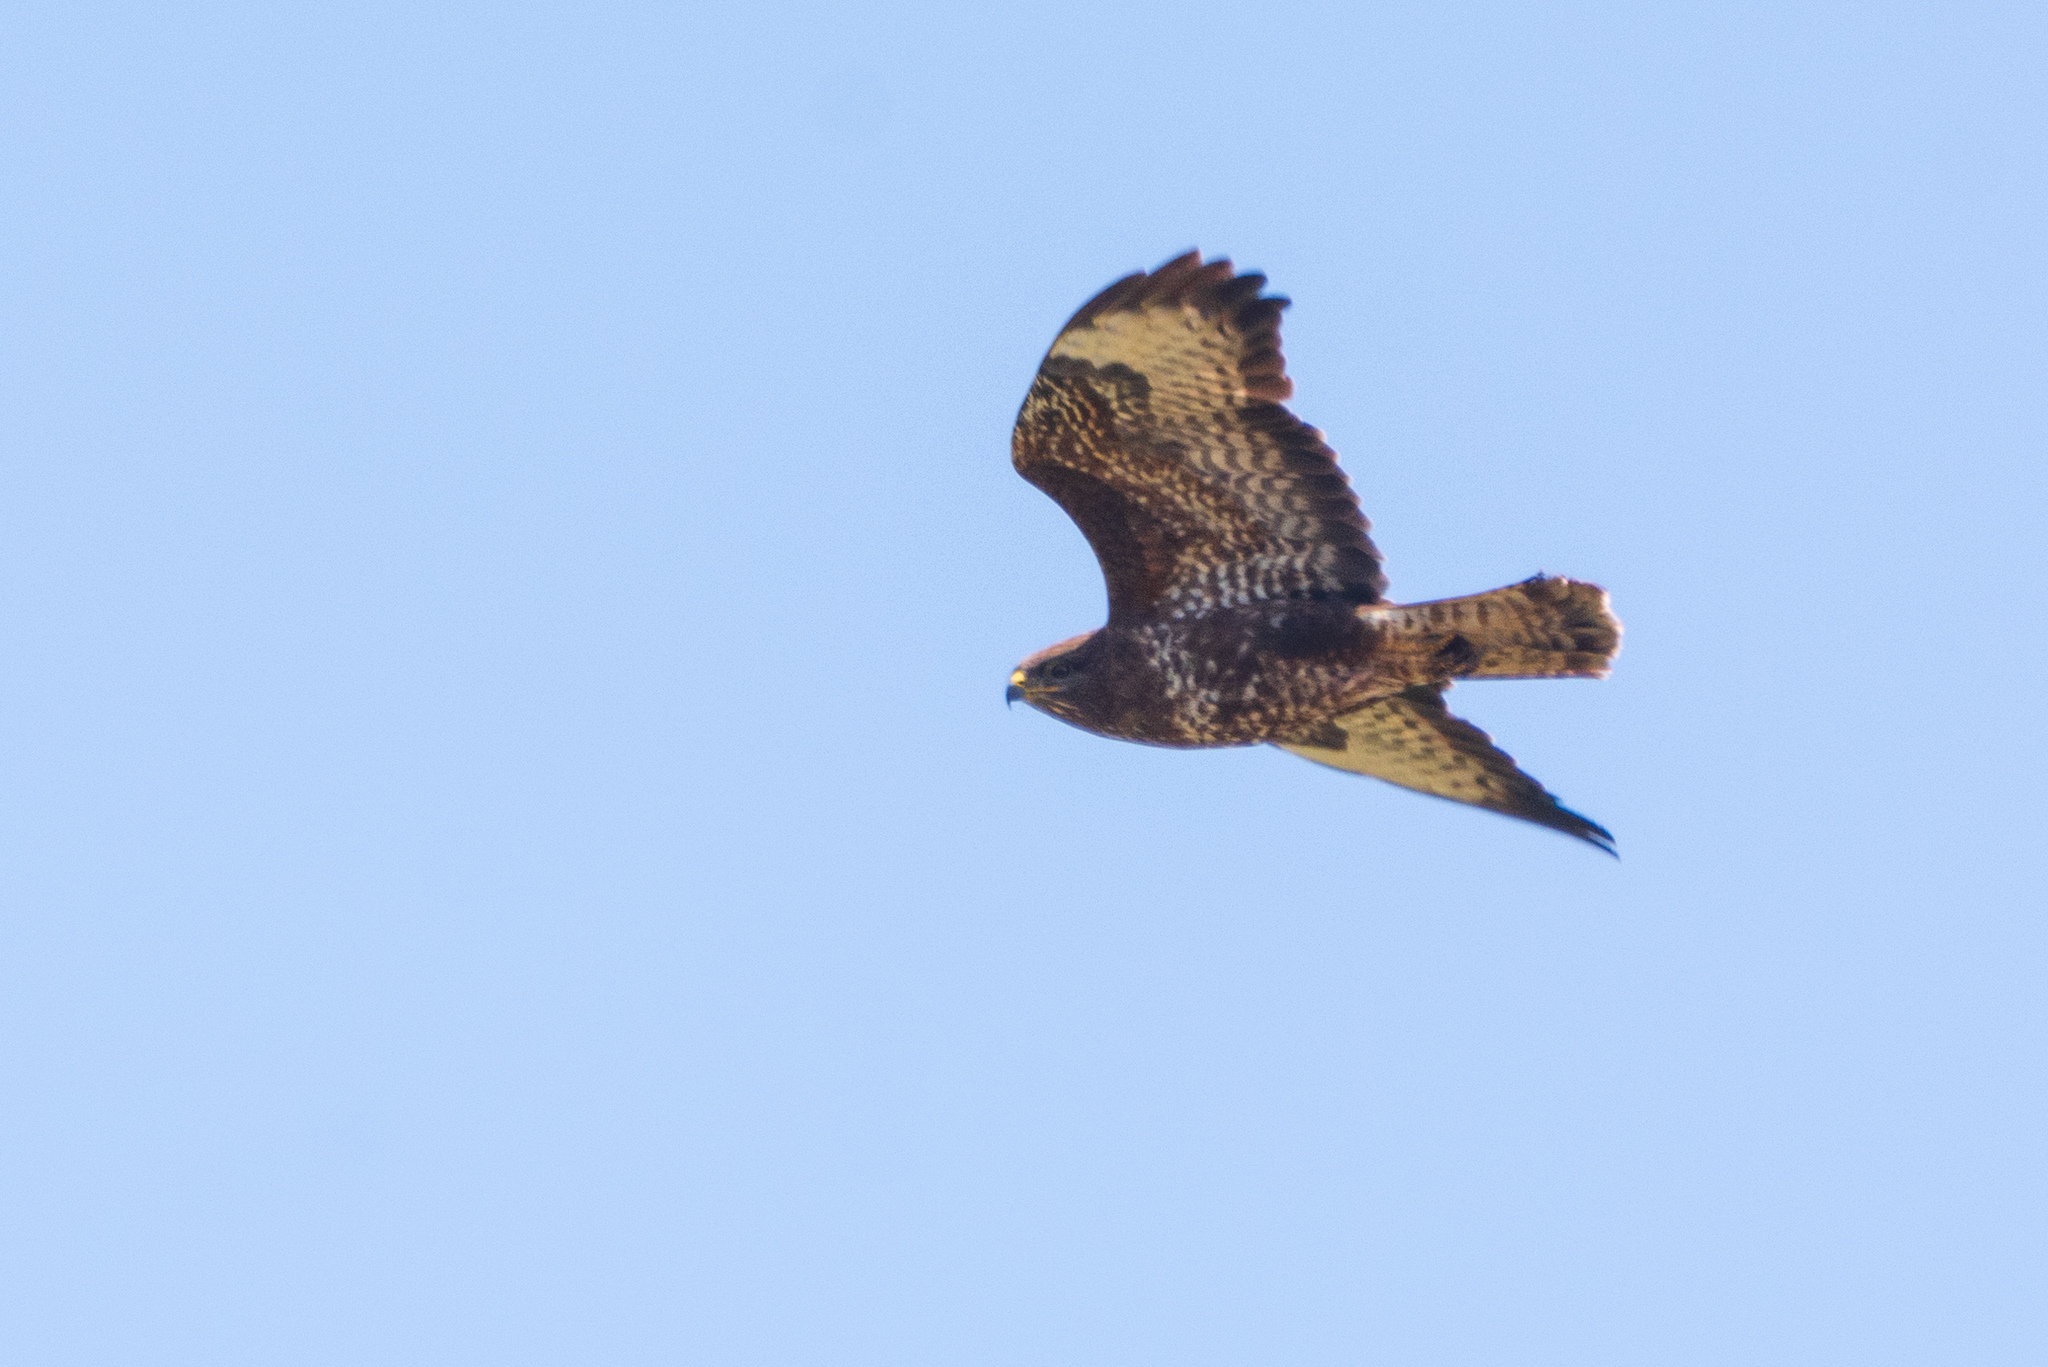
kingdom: Animalia
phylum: Chordata
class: Aves
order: Accipitriformes
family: Accipitridae
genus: Buteo
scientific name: Buteo buteo
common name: Common buzzard
